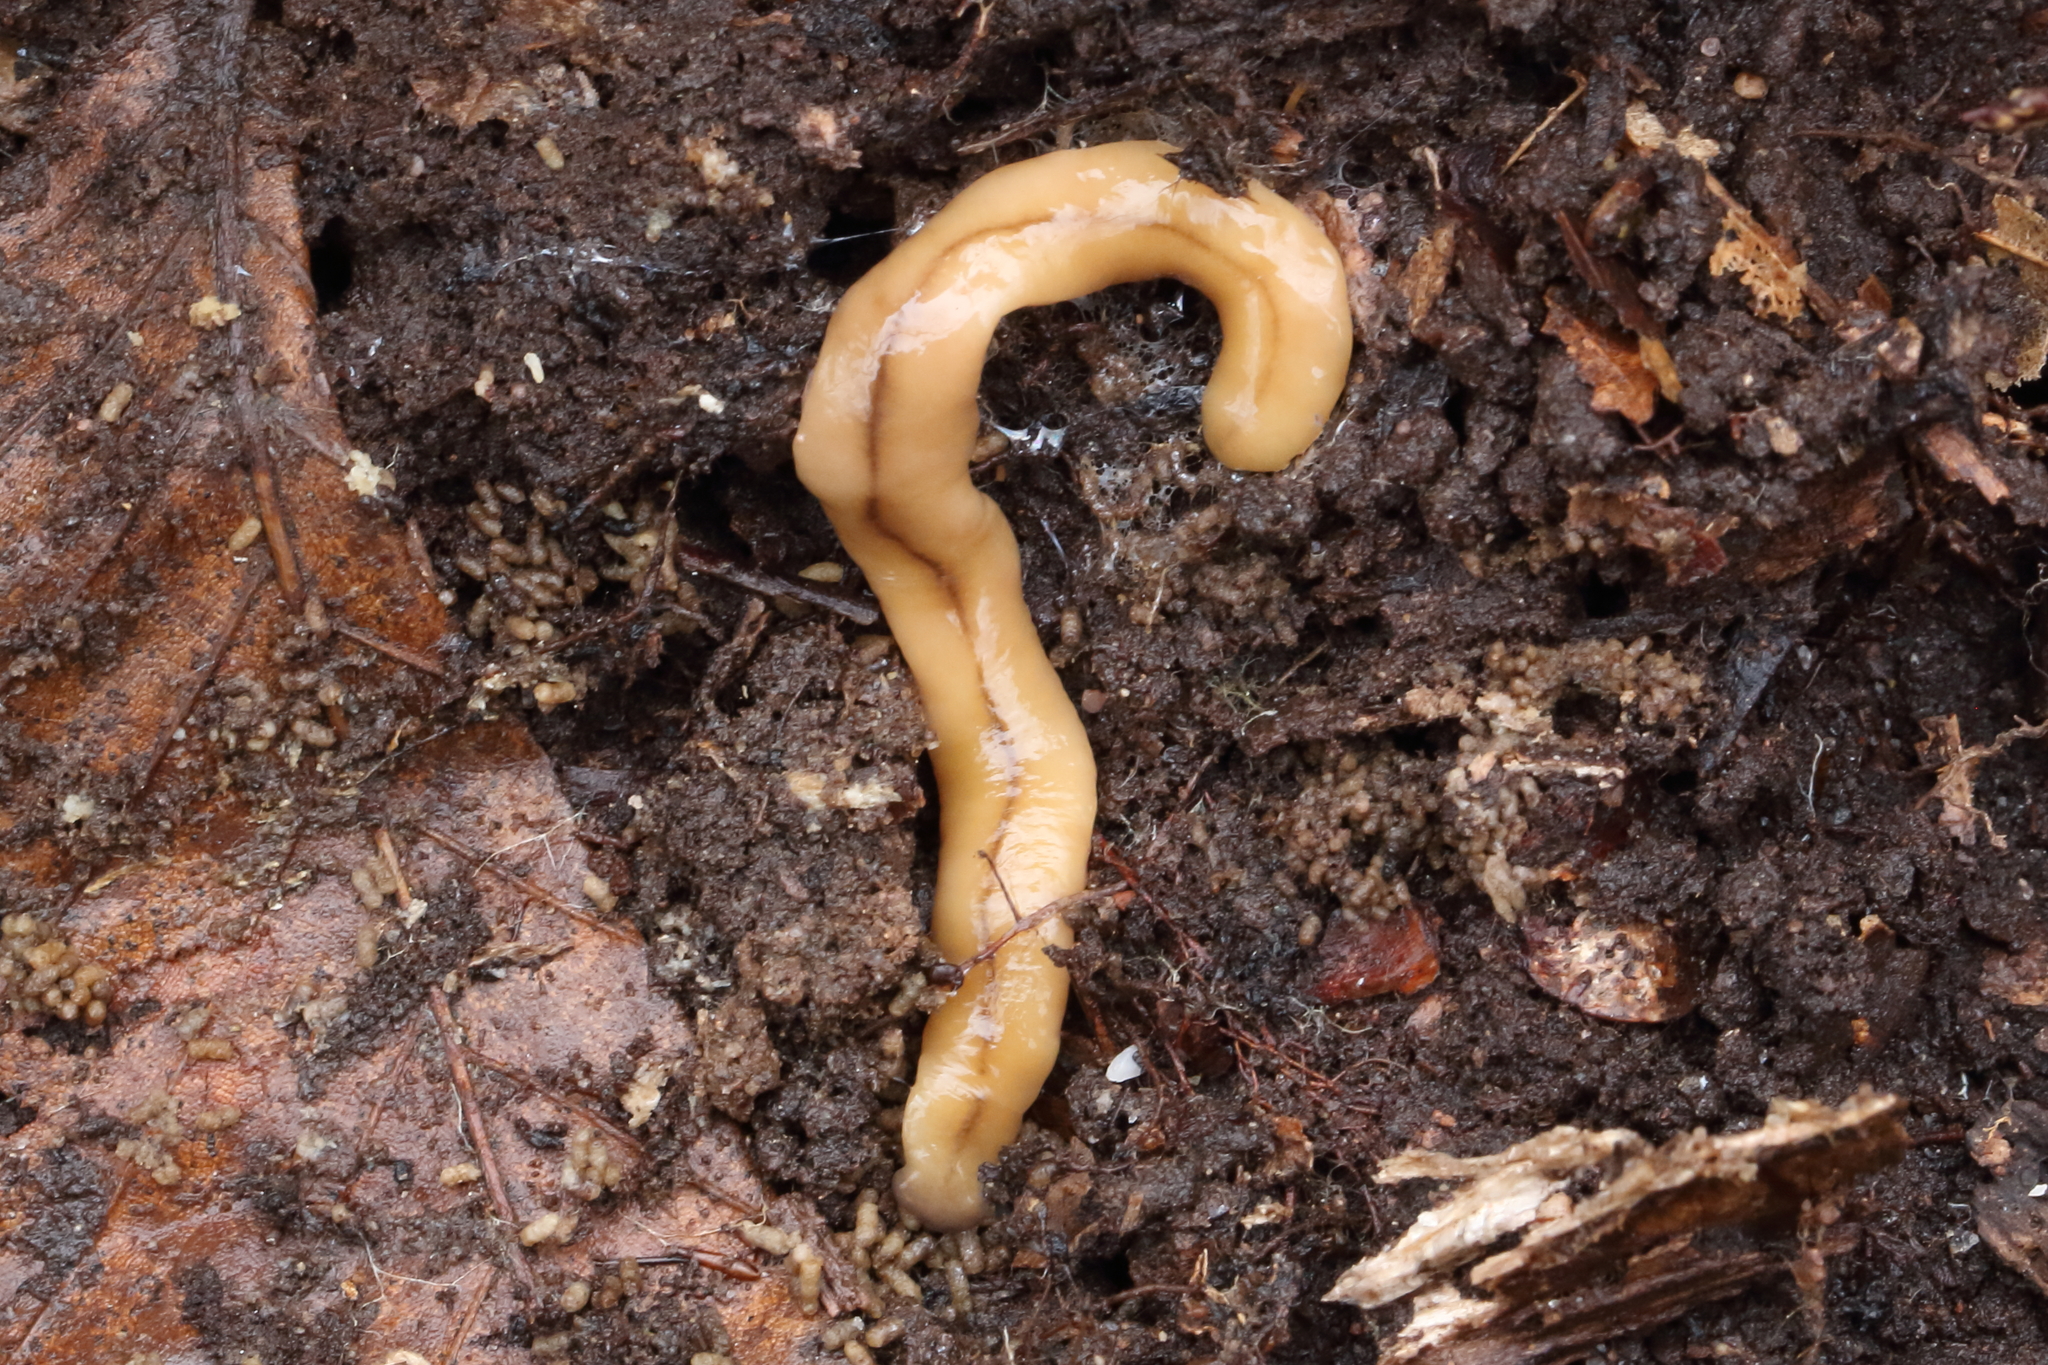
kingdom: Animalia
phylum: Platyhelminthes
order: Tricladida
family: Geoplanidae
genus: Bipalium
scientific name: Bipalium adventitium
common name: Land planarian
